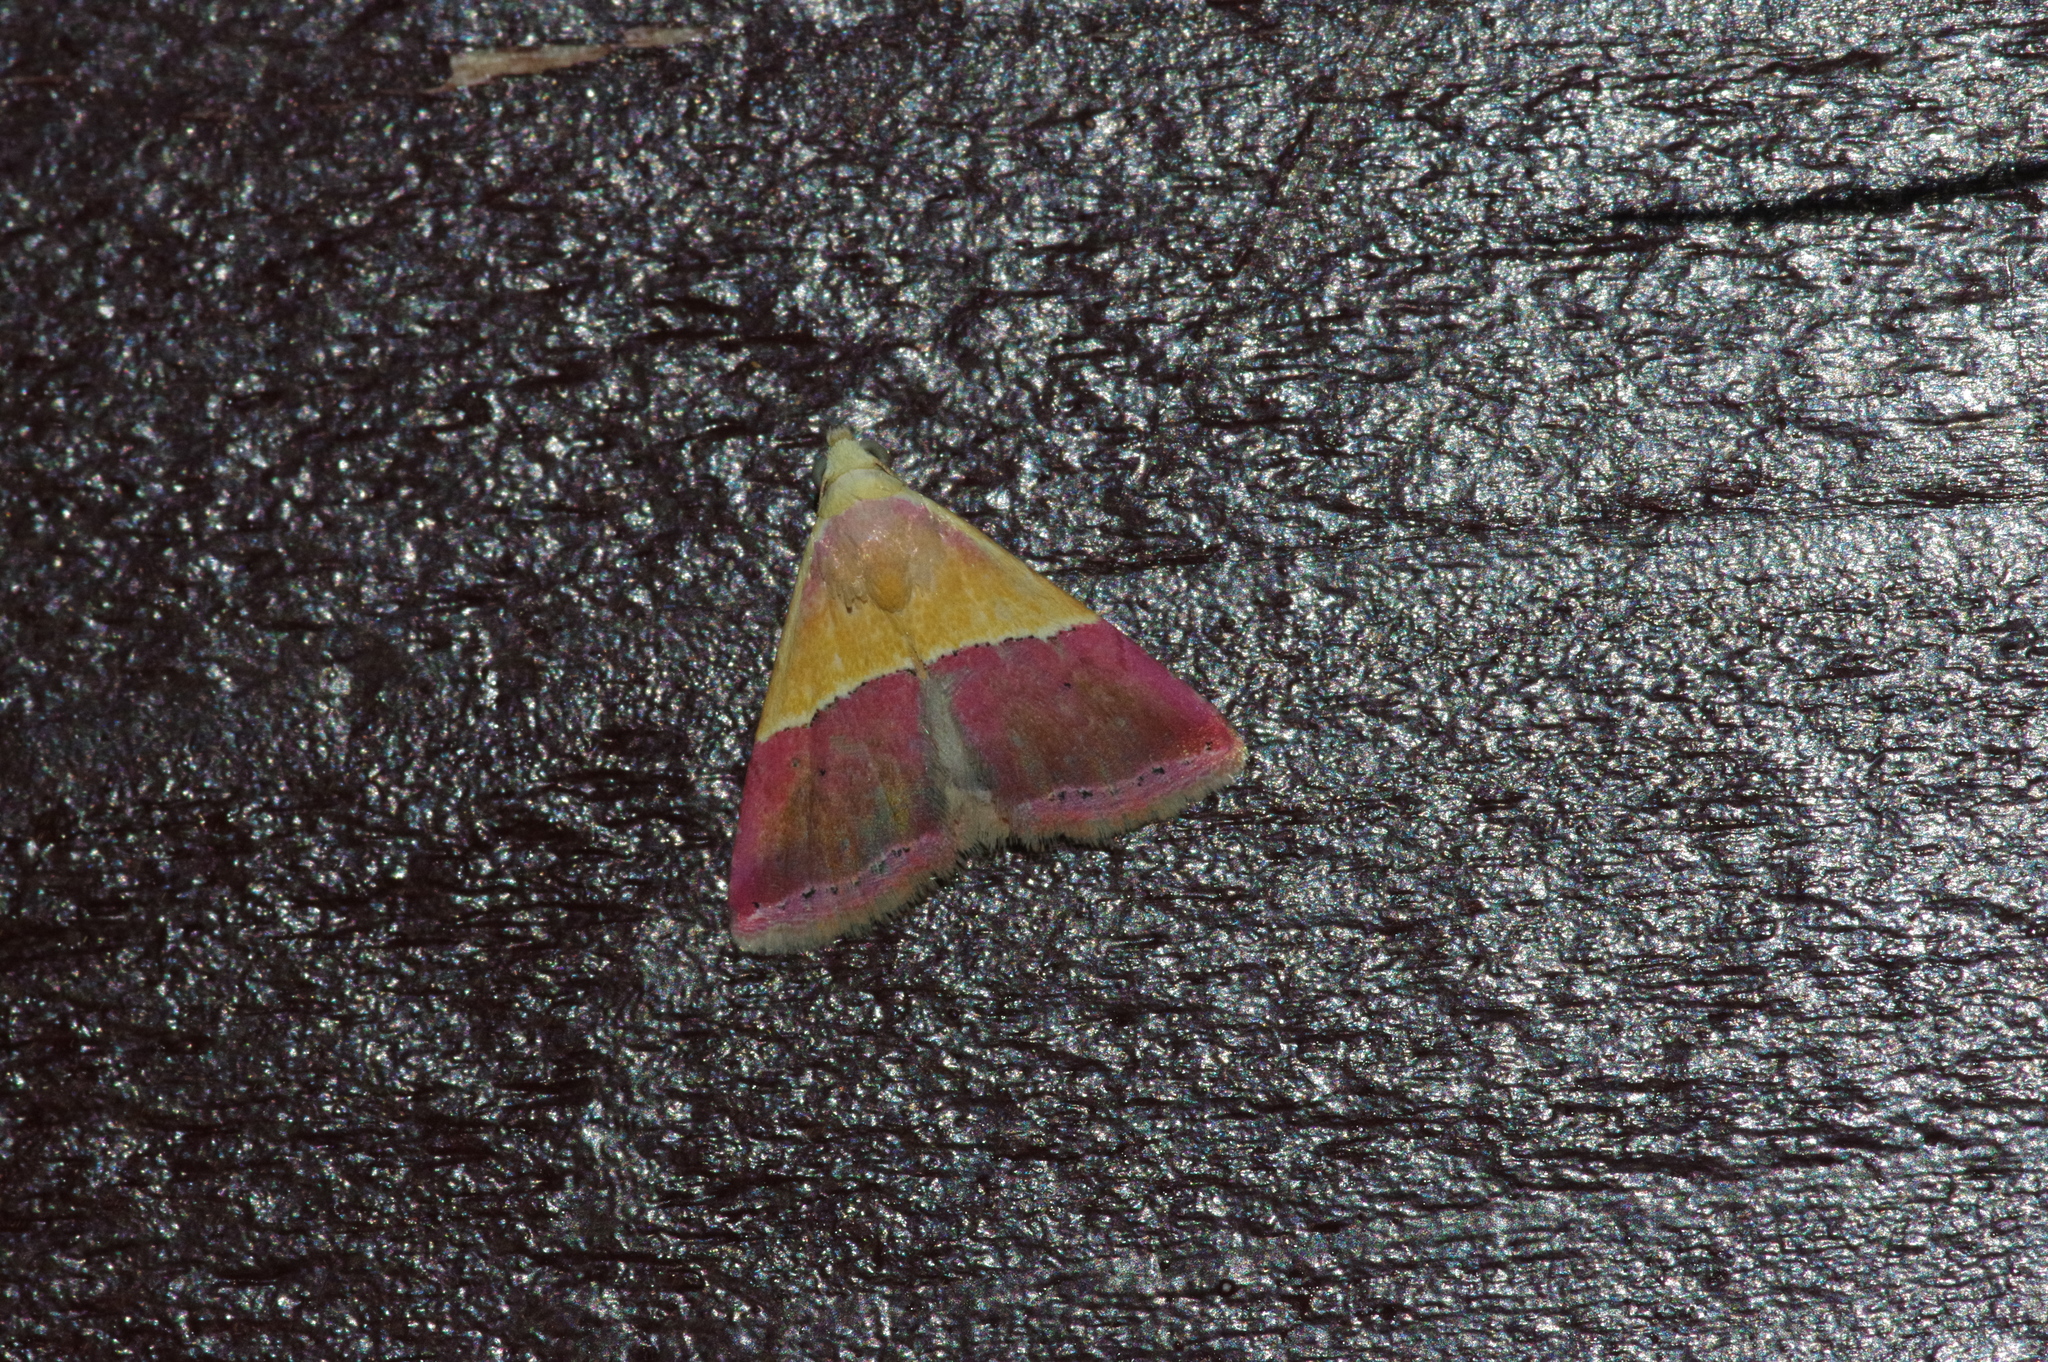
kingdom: Animalia
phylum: Arthropoda
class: Insecta
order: Lepidoptera
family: Noctuidae
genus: Eublemma
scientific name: Eublemma accedens
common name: Moth
